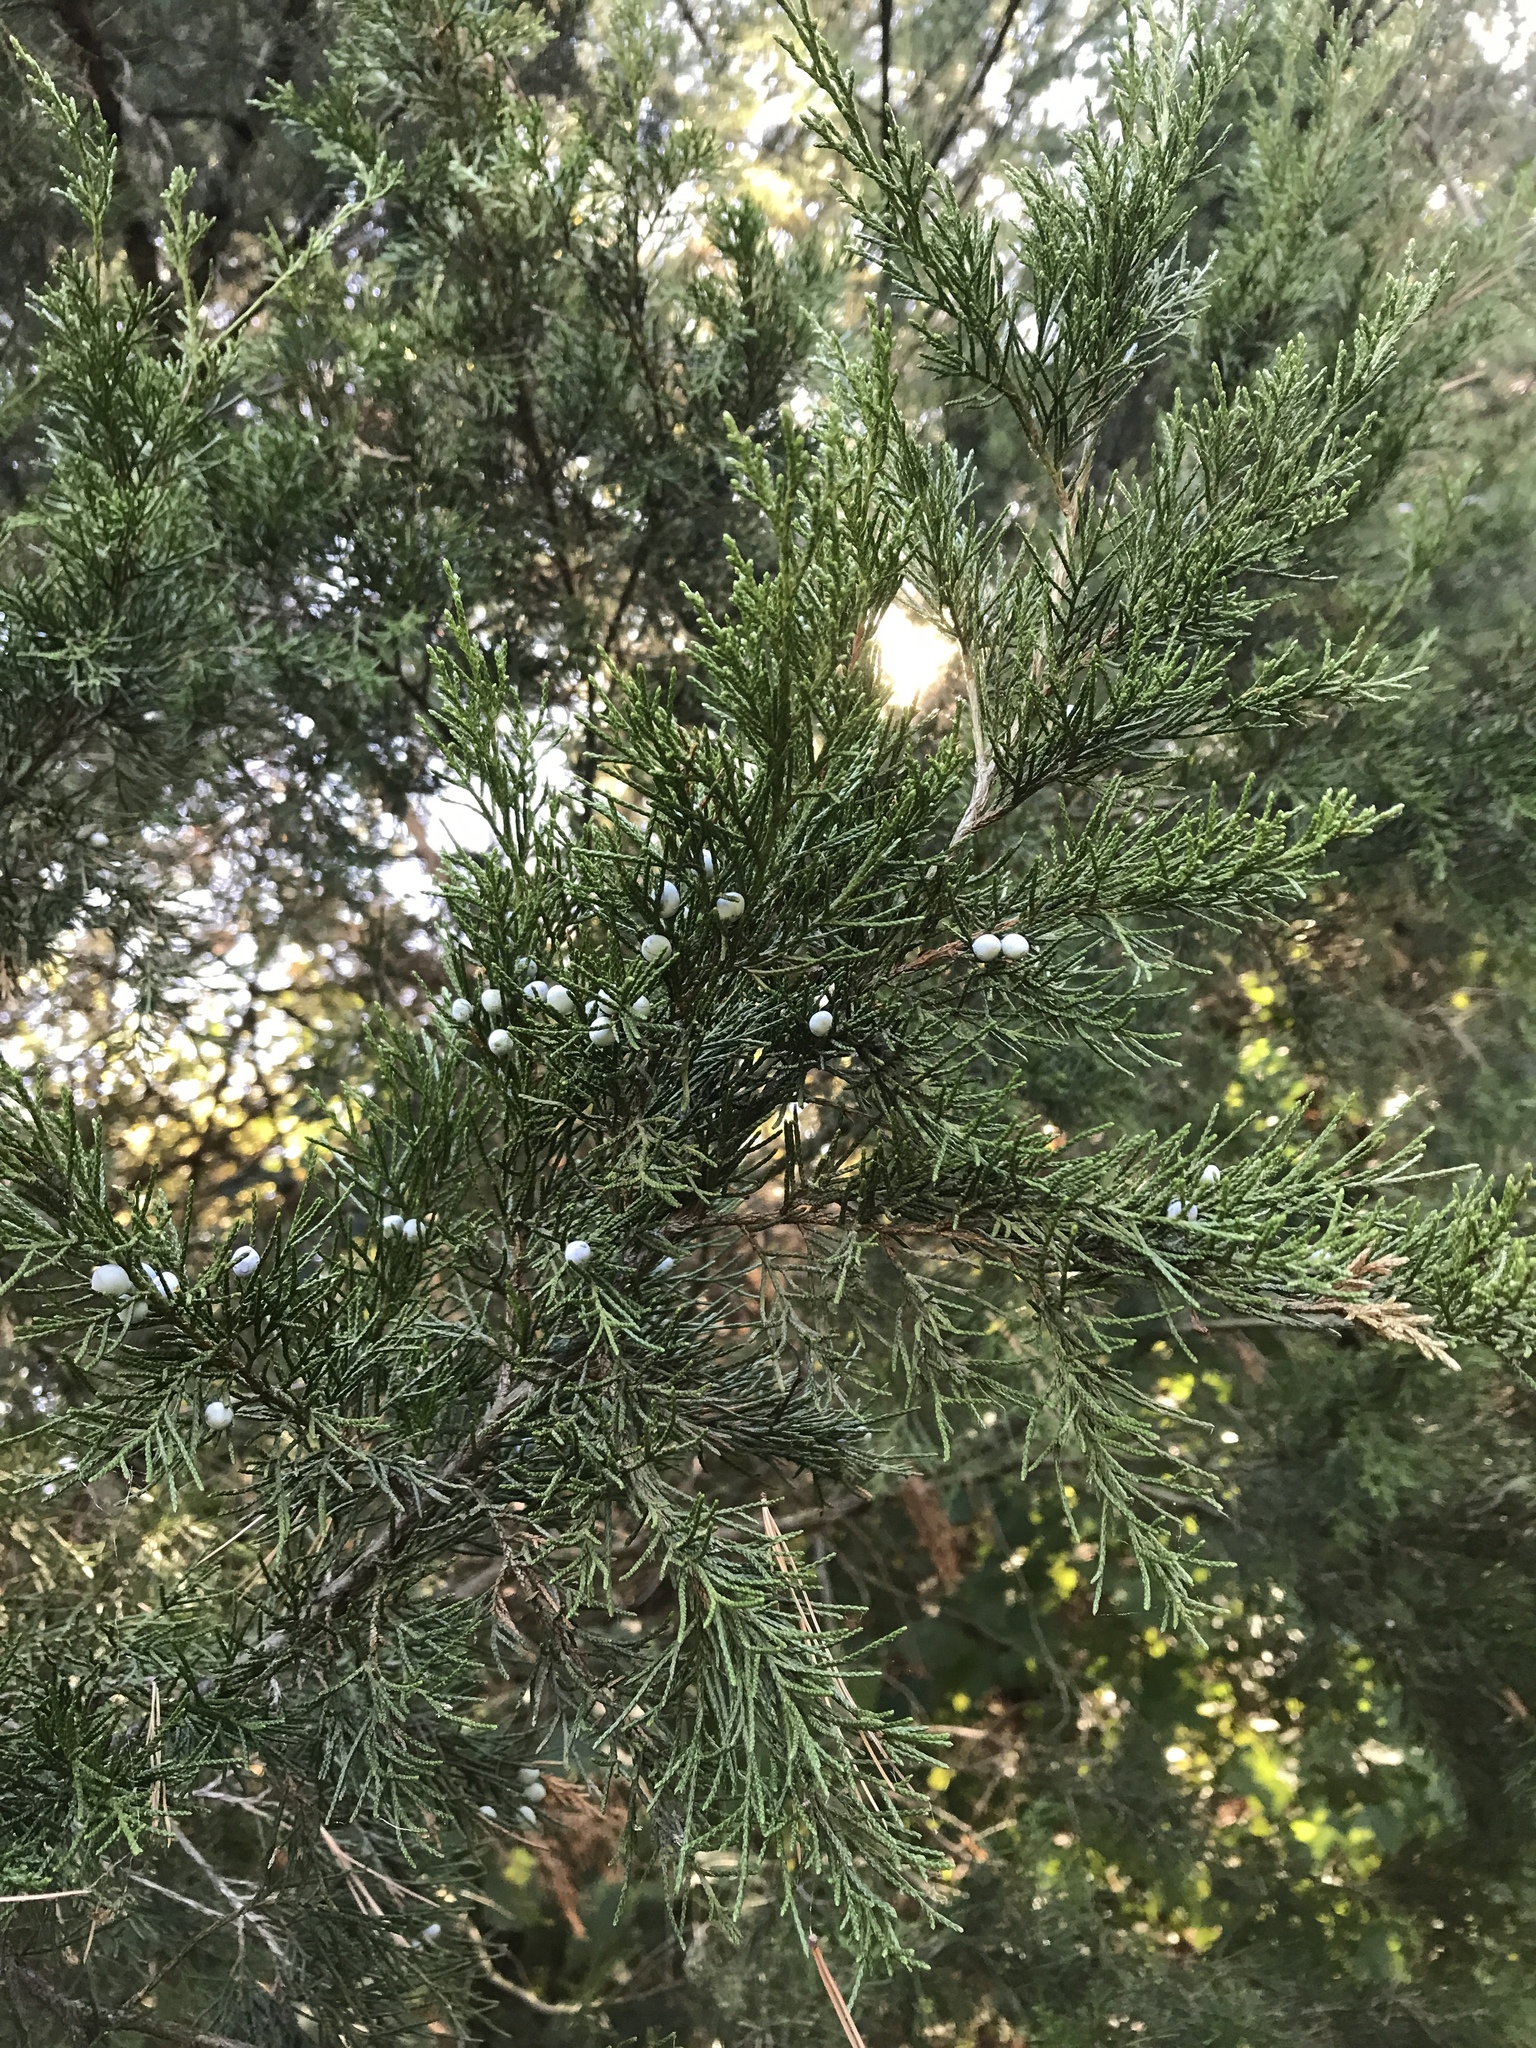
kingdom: Plantae
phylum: Tracheophyta
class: Pinopsida
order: Pinales
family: Cupressaceae
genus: Juniperus
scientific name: Juniperus virginiana
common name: Red juniper
